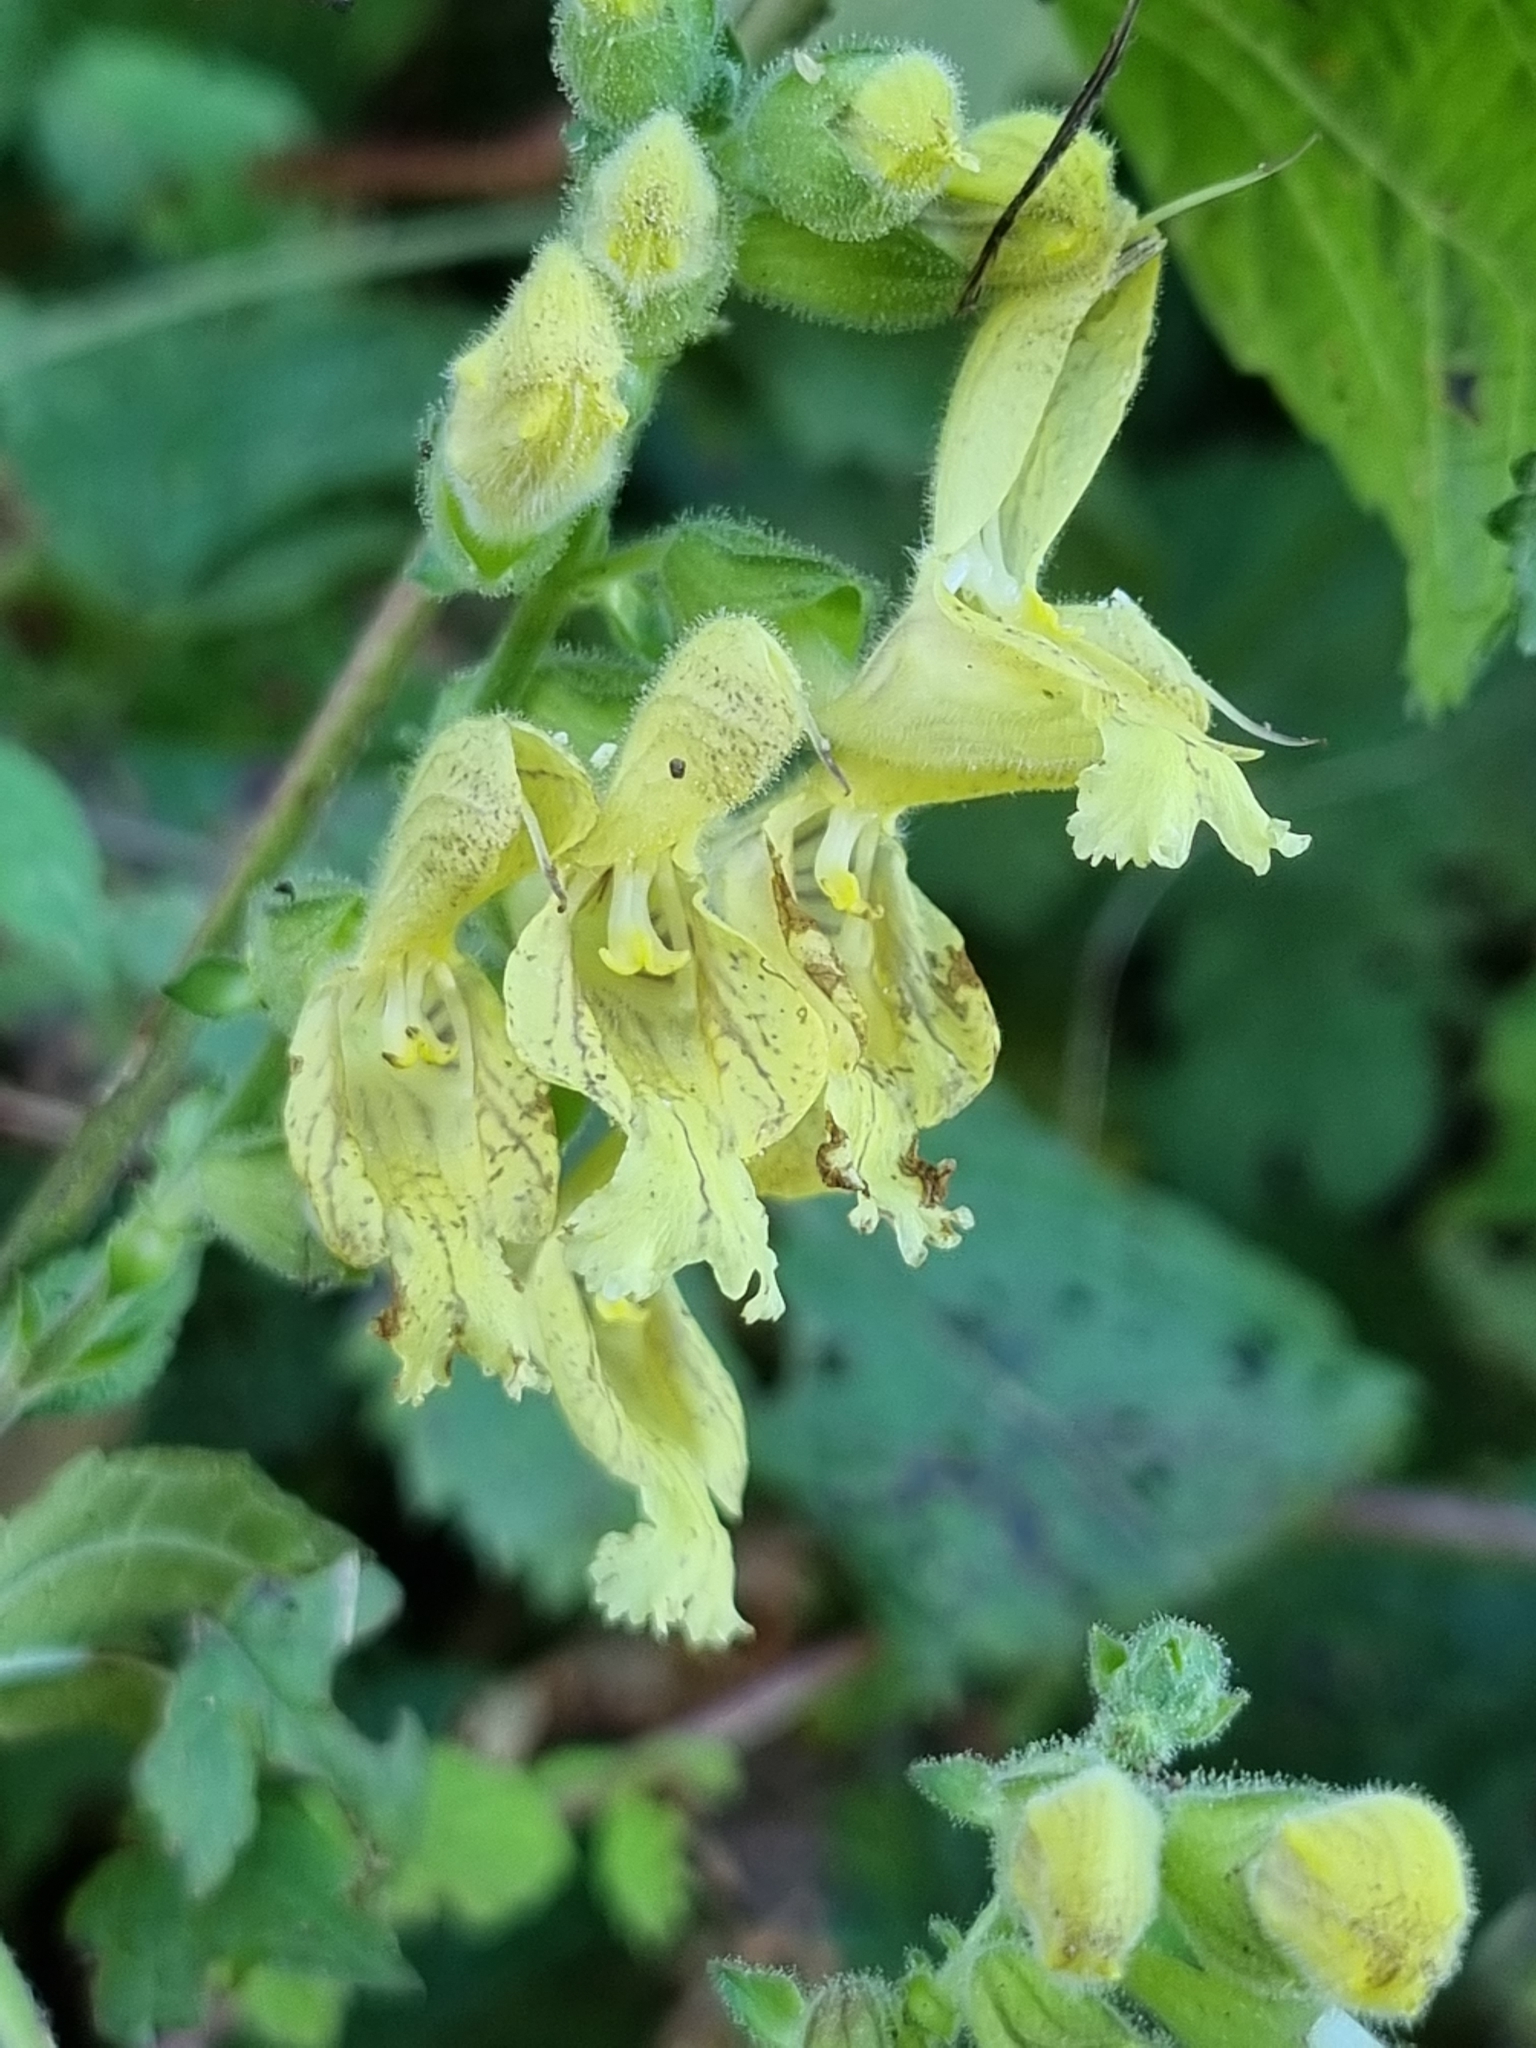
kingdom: Plantae
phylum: Tracheophyta
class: Magnoliopsida
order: Lamiales
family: Lamiaceae
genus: Salvia
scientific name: Salvia glutinosa
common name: Sticky clary
